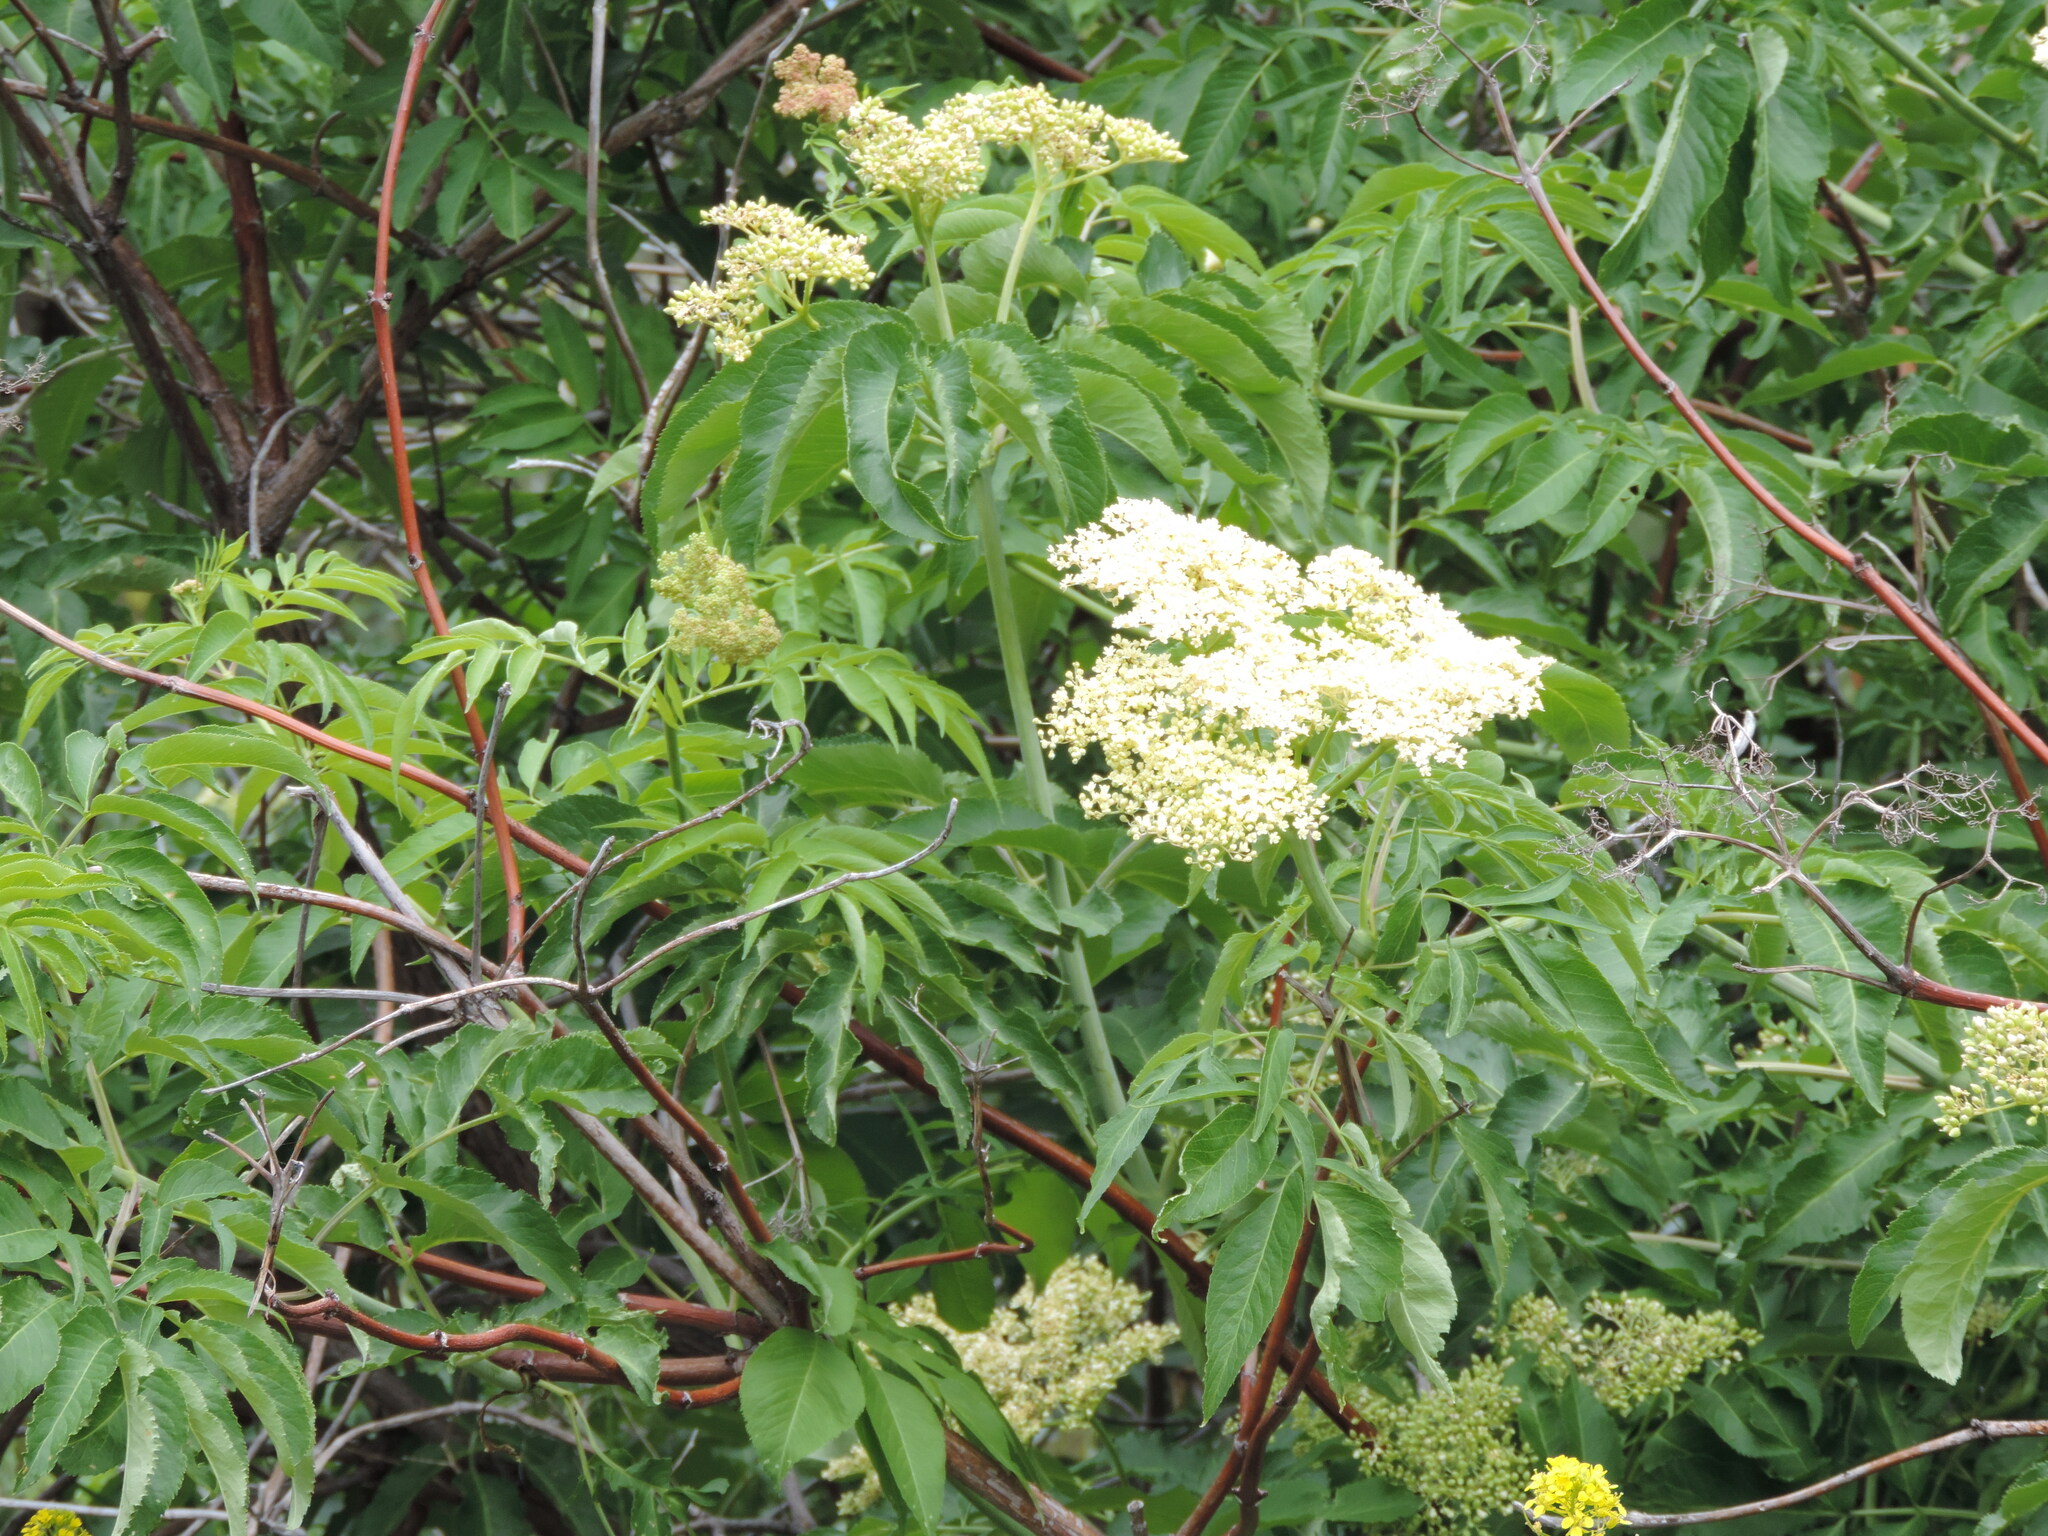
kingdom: Plantae
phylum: Tracheophyta
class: Magnoliopsida
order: Dipsacales
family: Viburnaceae
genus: Sambucus
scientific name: Sambucus cerulea
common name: Blue elder
